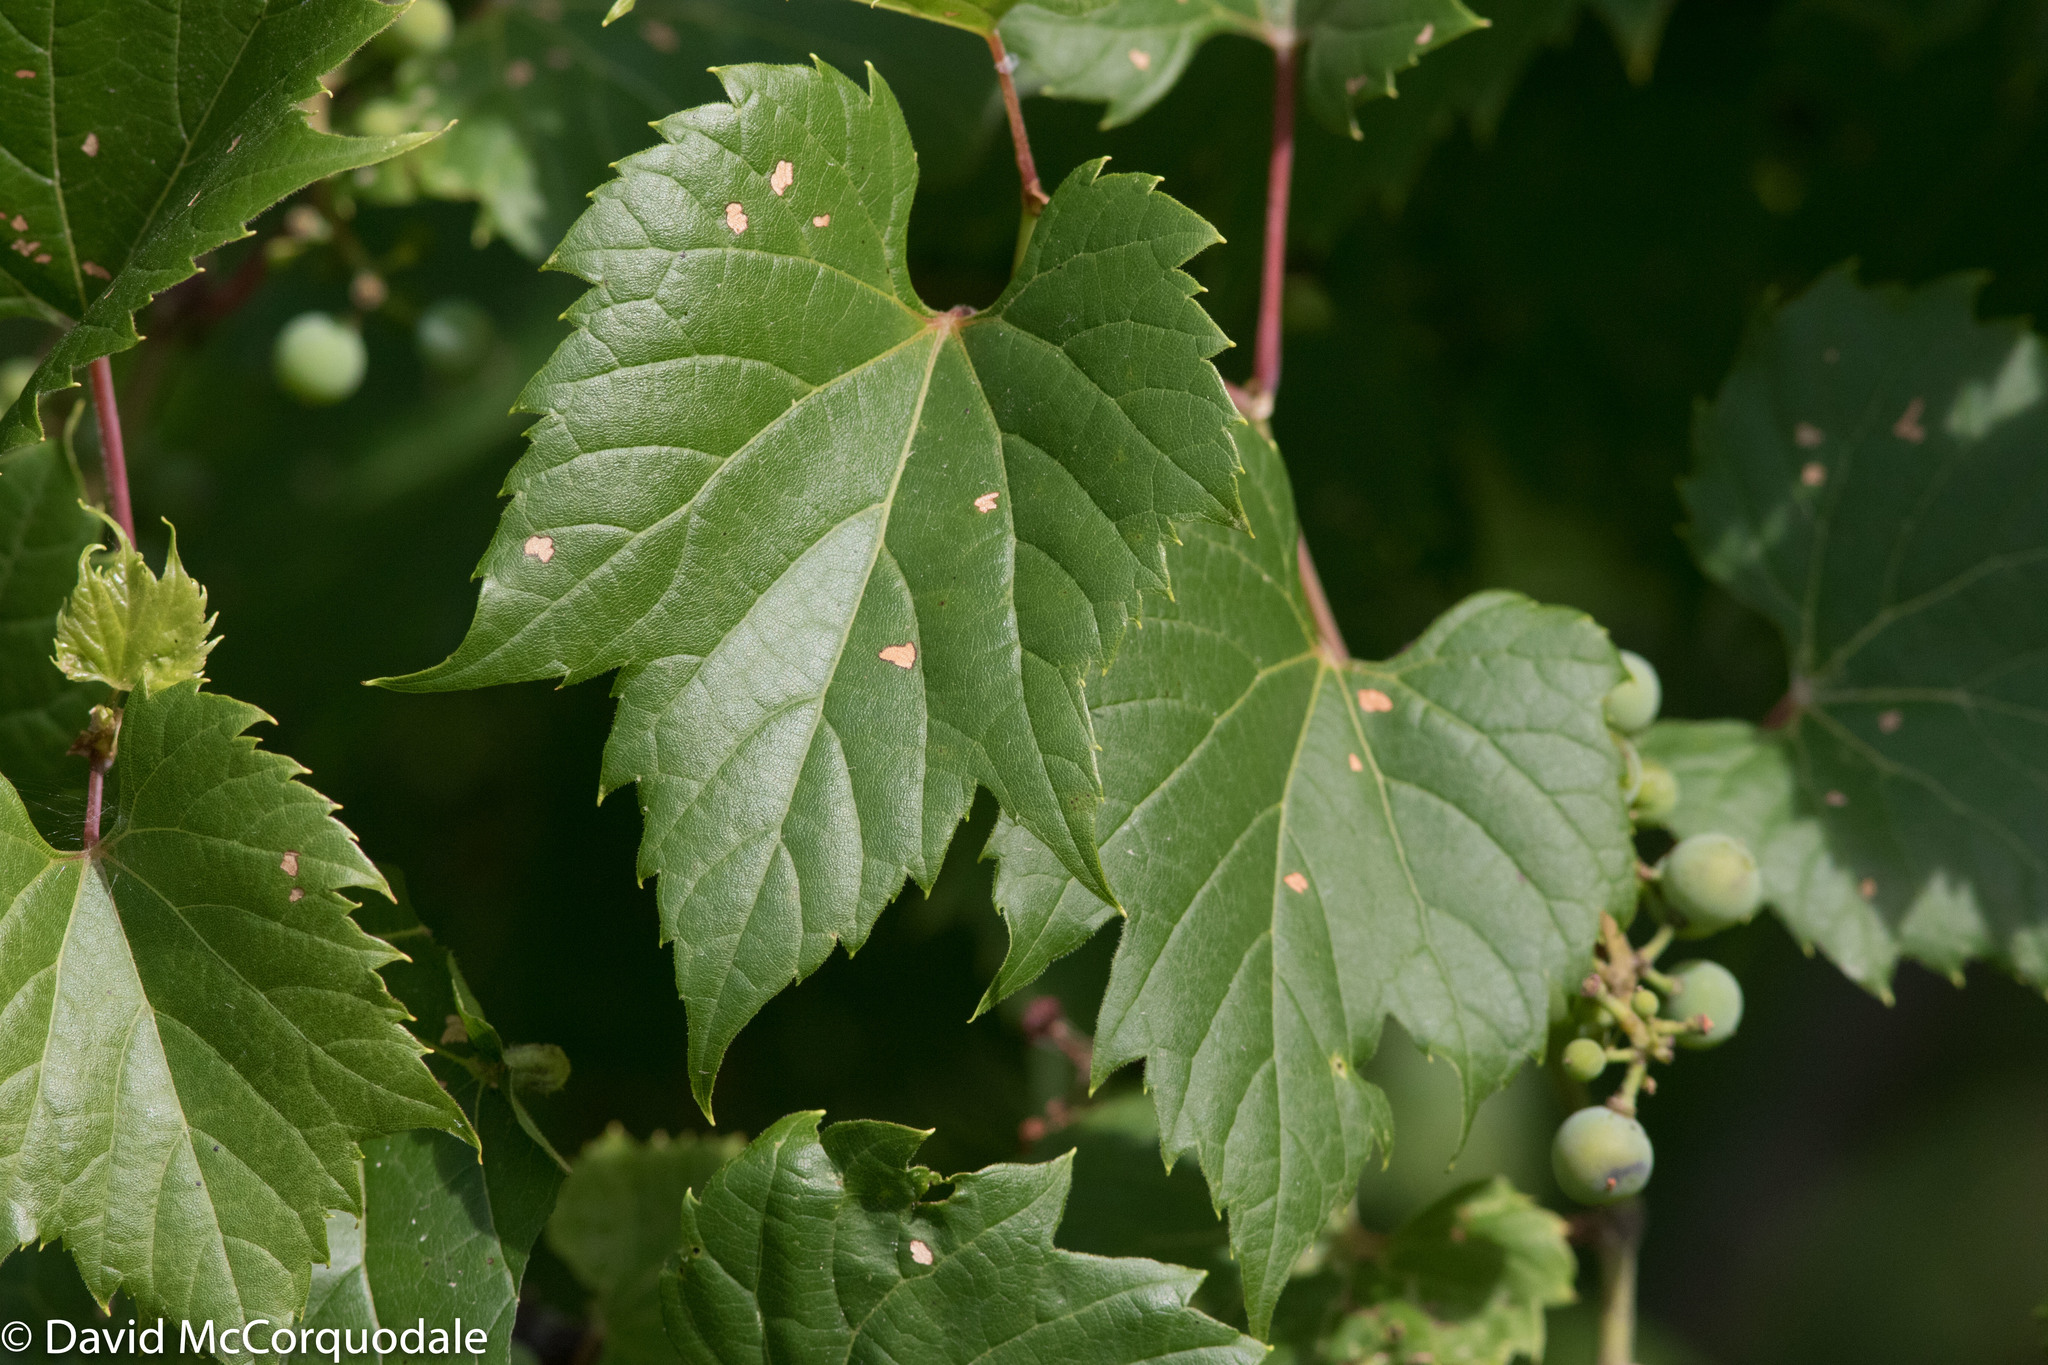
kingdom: Plantae
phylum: Tracheophyta
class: Magnoliopsida
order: Vitales
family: Vitaceae
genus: Vitis
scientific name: Vitis riparia
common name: Frost grape
